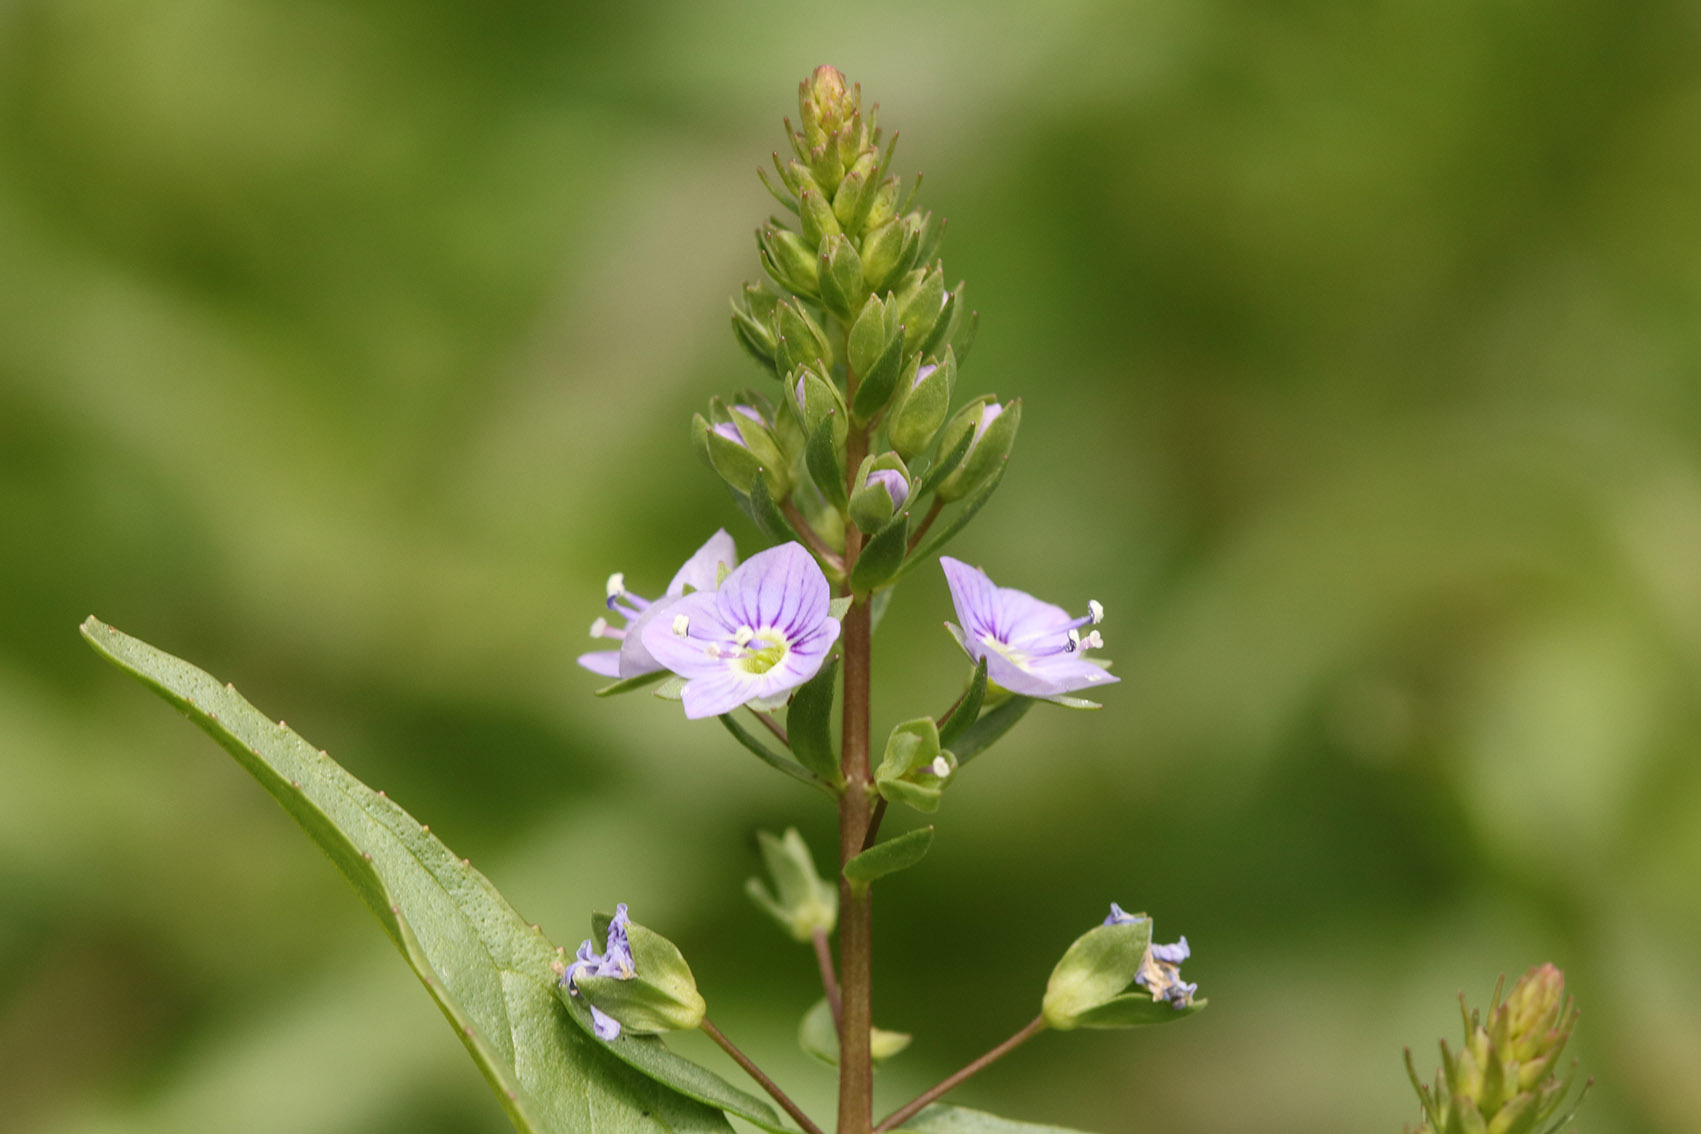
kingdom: Plantae
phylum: Tracheophyta
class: Magnoliopsida
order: Lamiales
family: Plantaginaceae
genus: Veronica
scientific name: Veronica anagallis-aquatica
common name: Water speedwell
